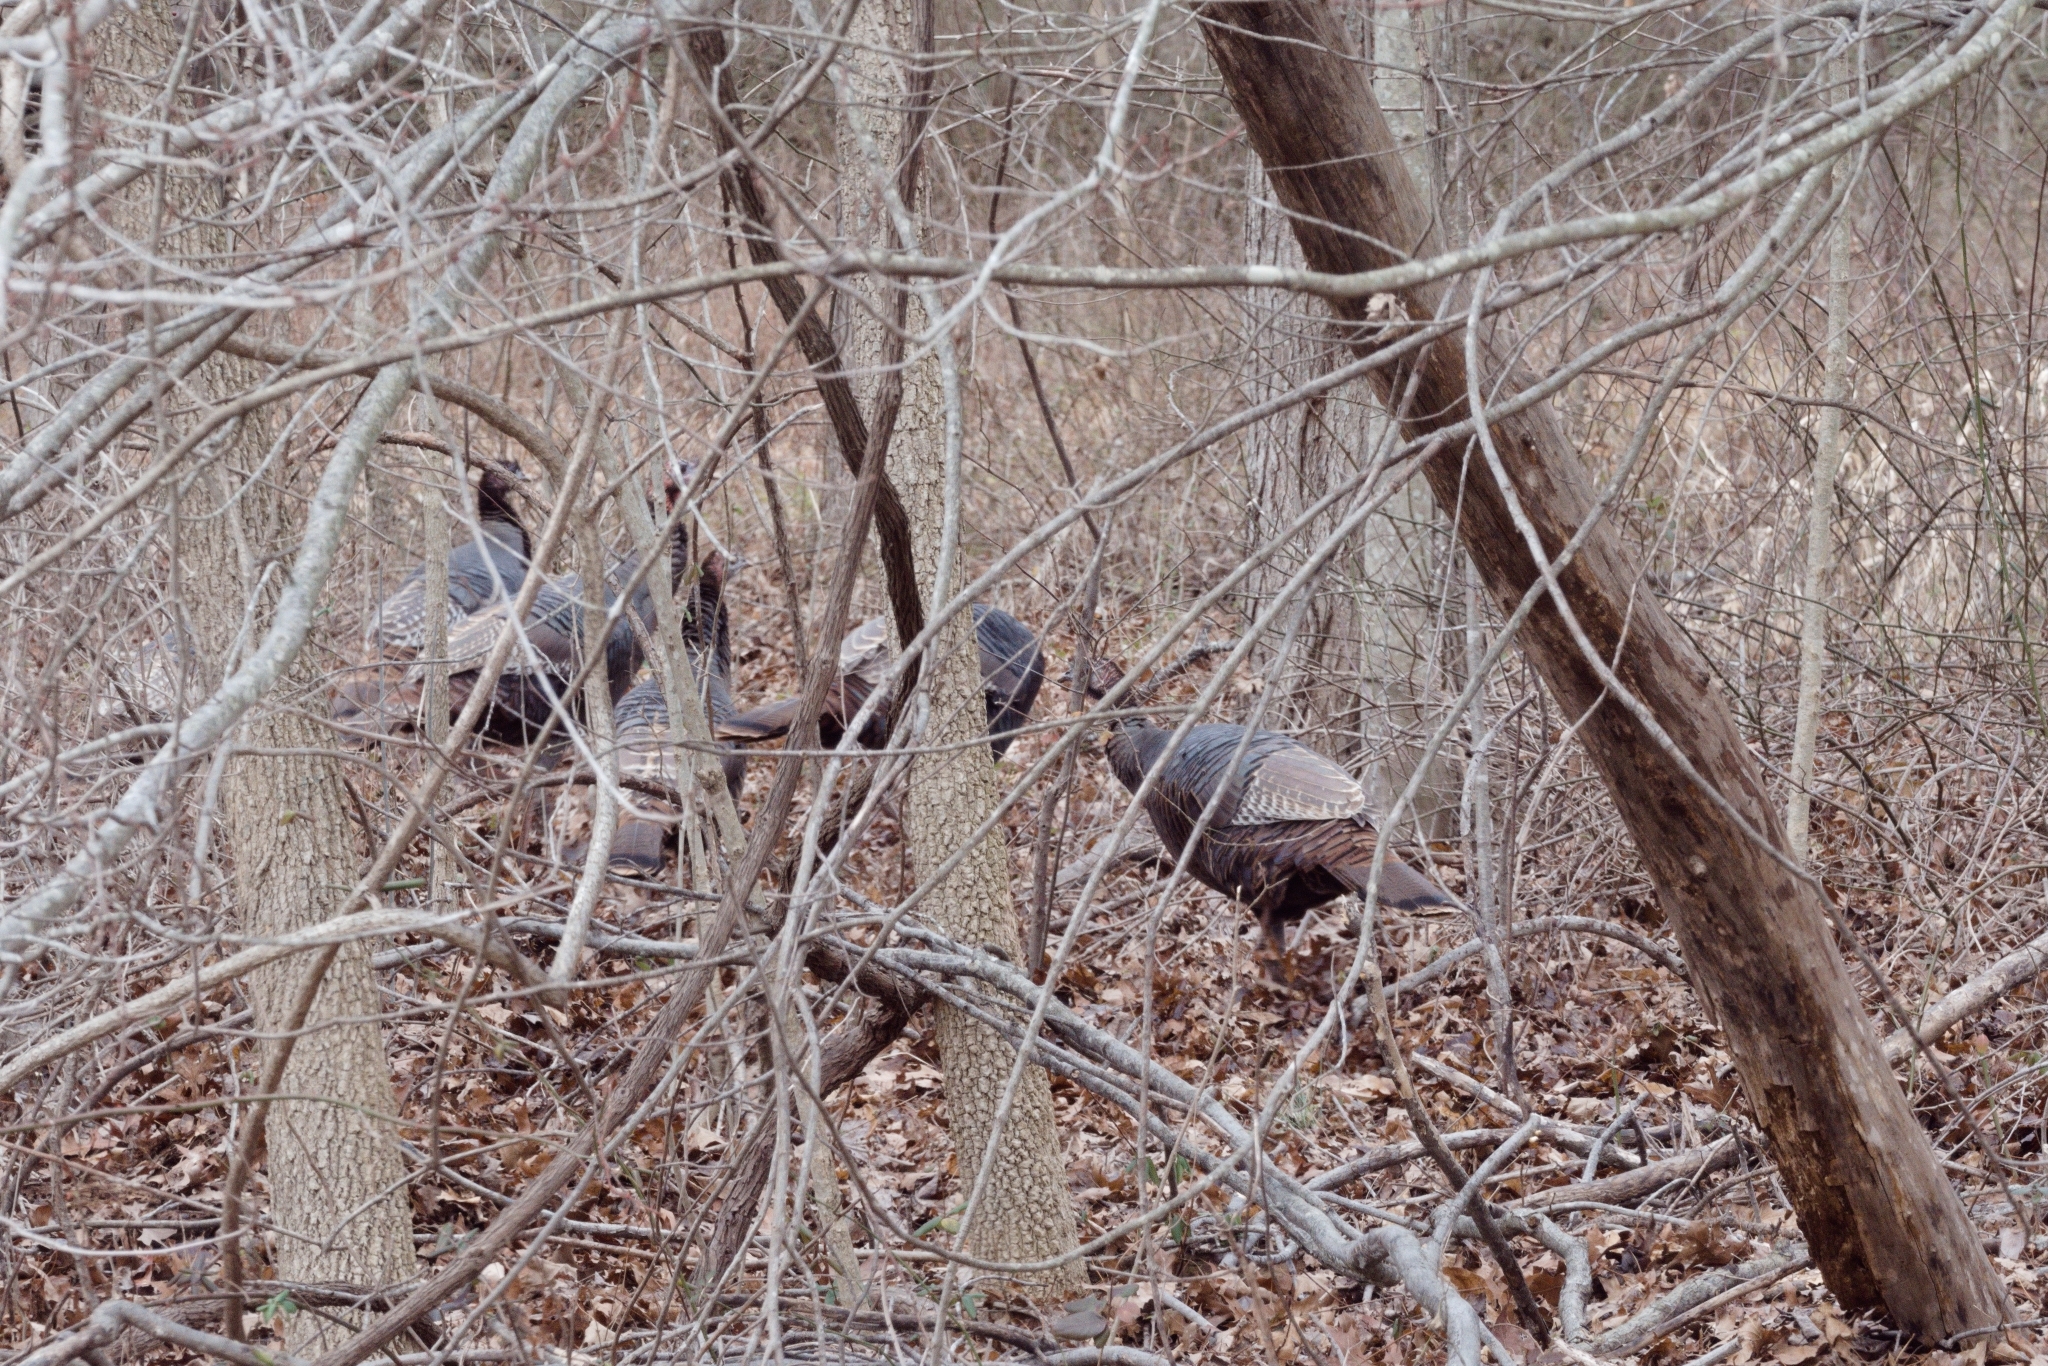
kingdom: Animalia
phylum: Chordata
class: Aves
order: Galliformes
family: Phasianidae
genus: Meleagris
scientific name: Meleagris gallopavo
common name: Wild turkey
